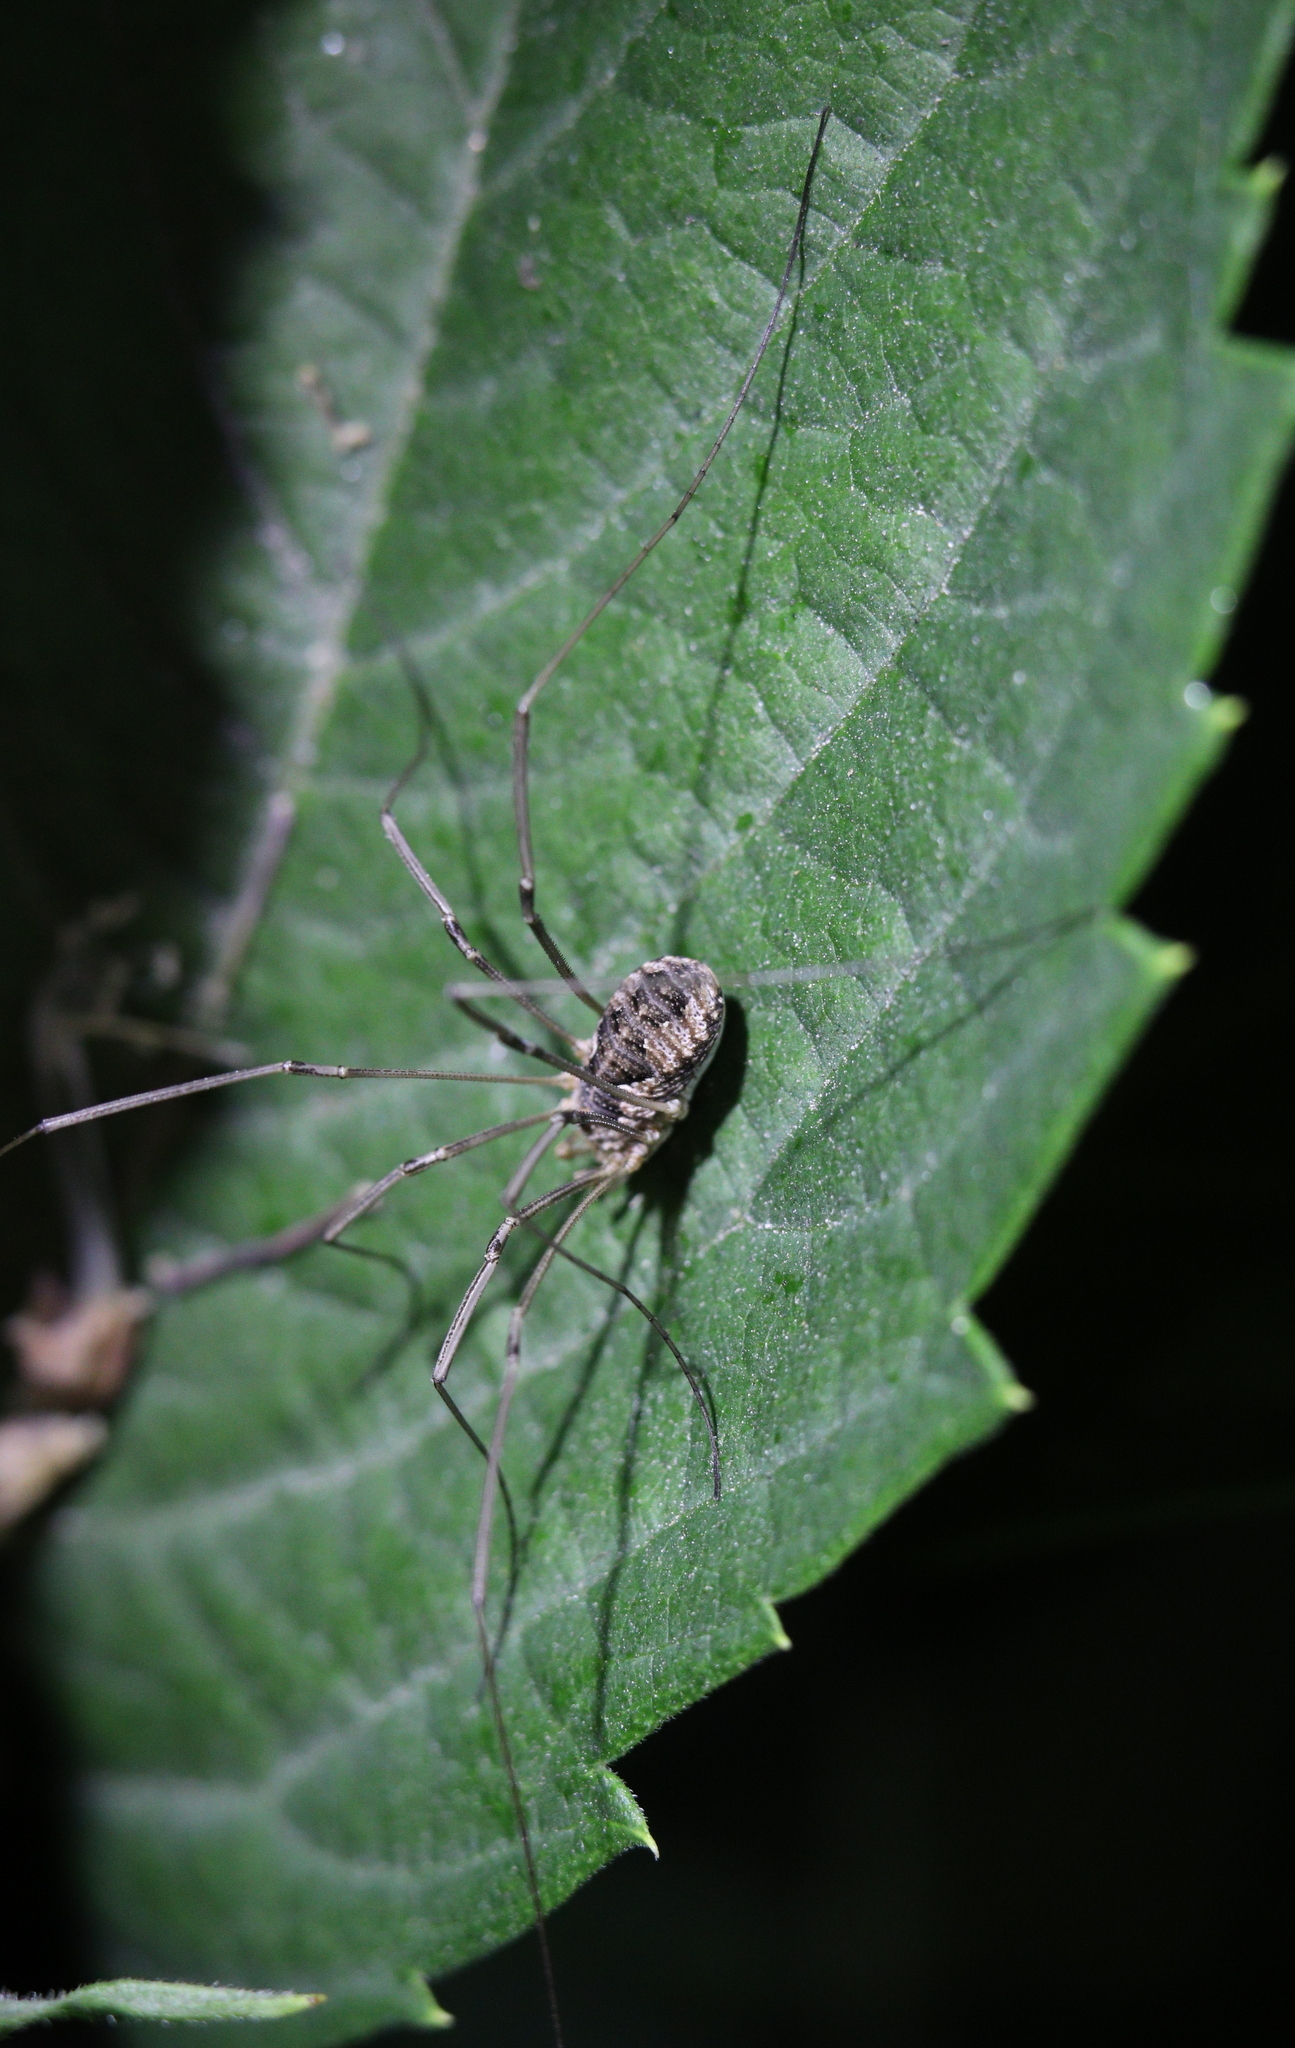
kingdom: Animalia
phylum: Arthropoda
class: Arachnida
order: Opiliones
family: Phalangiidae
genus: Phalangium
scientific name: Phalangium opilio
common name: Daddy longleg
